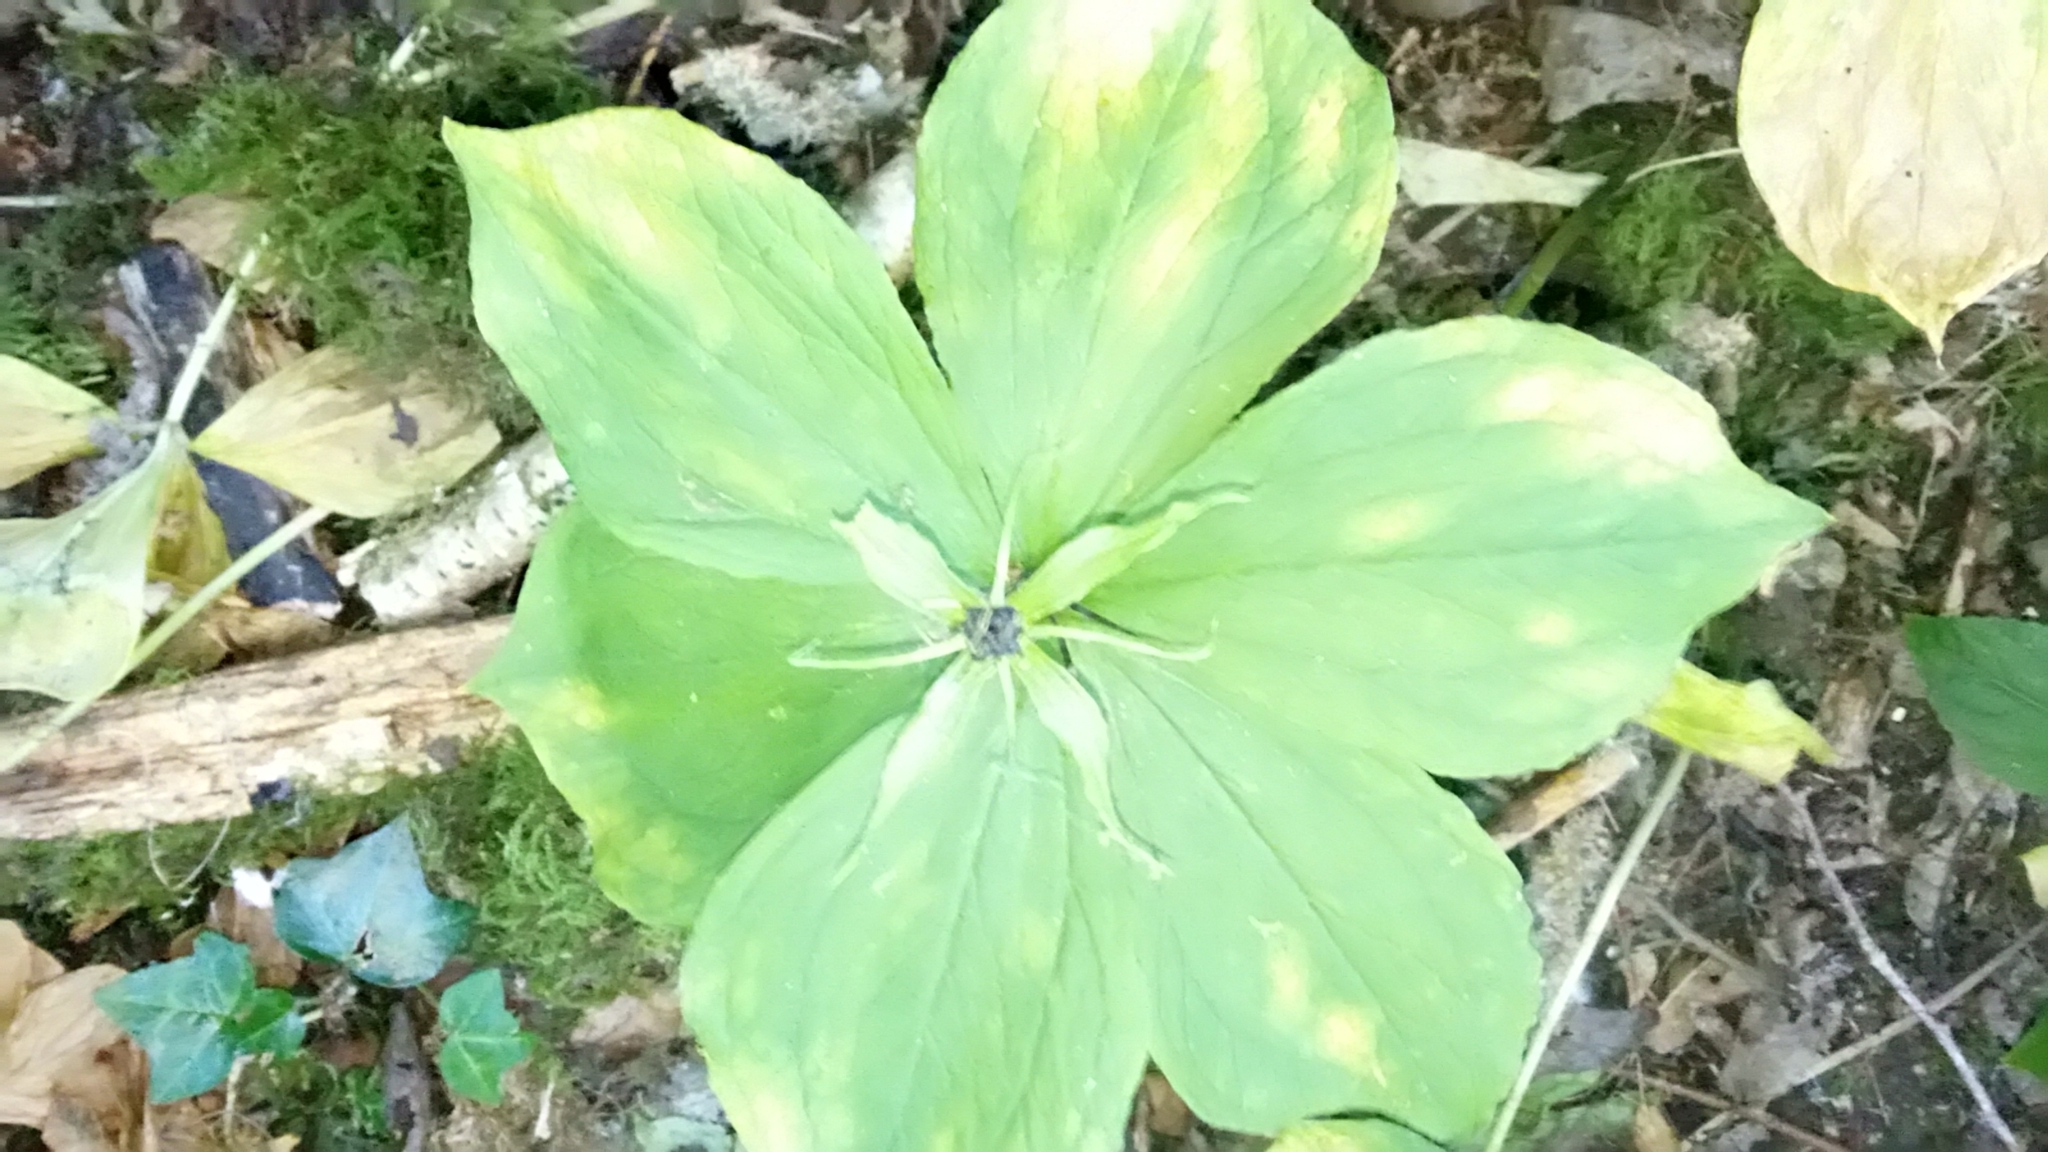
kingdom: Plantae
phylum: Tracheophyta
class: Liliopsida
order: Liliales
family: Melanthiaceae
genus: Paris
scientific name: Paris quadrifolia
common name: Herb-paris
